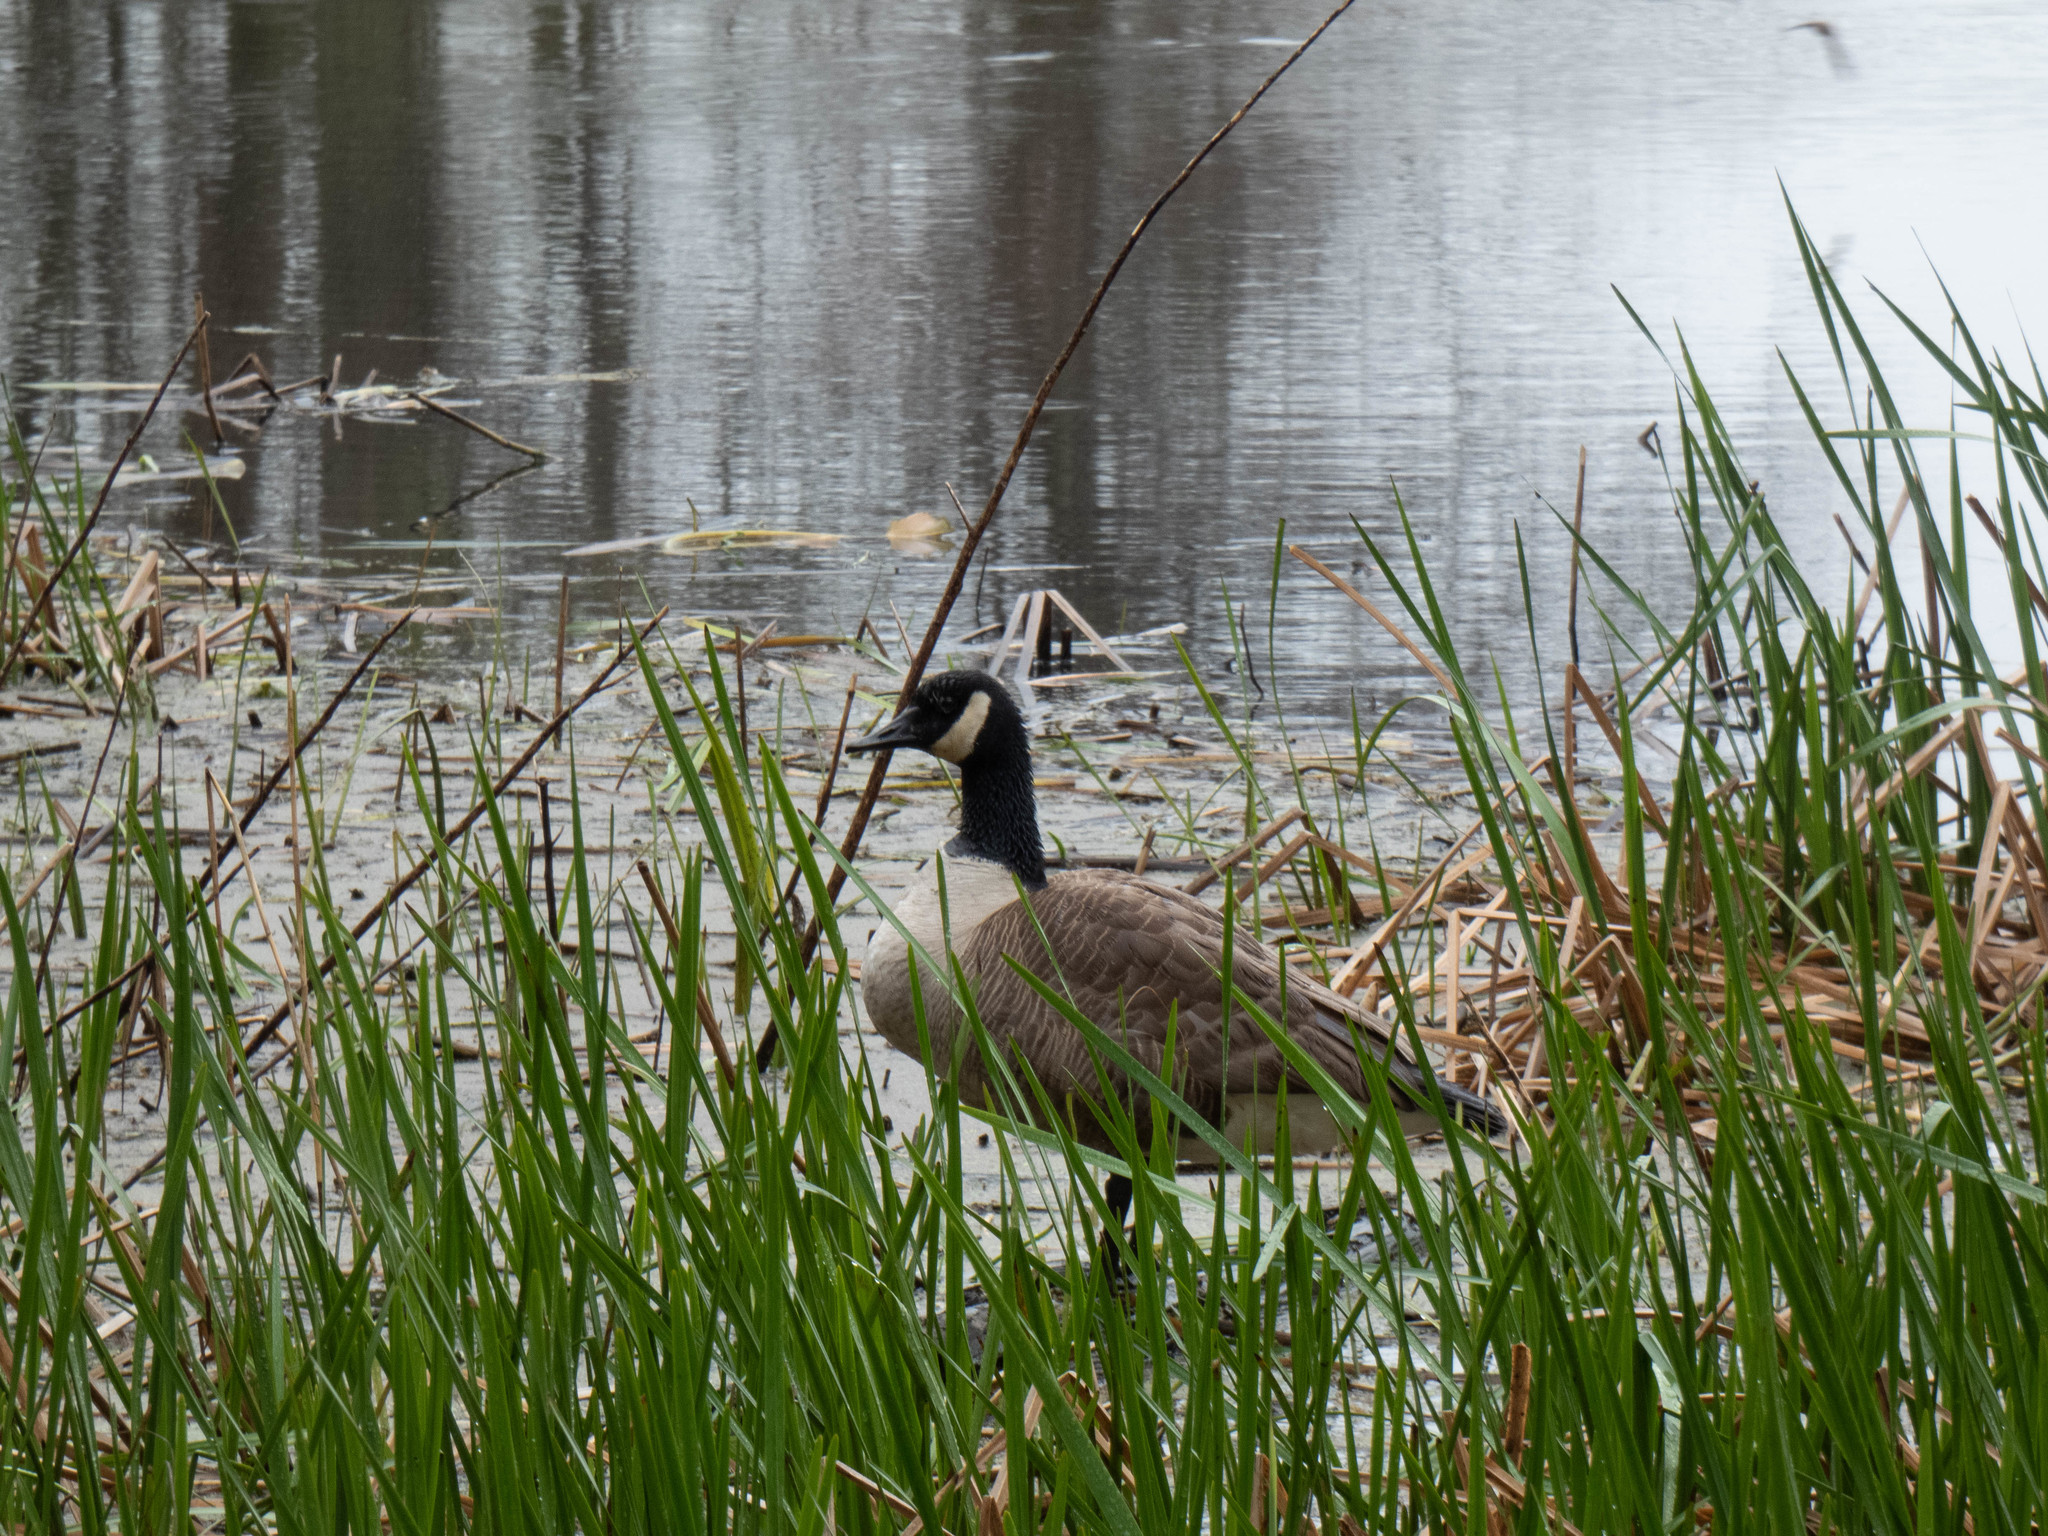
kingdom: Animalia
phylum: Chordata
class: Aves
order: Anseriformes
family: Anatidae
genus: Branta
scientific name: Branta canadensis
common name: Canada goose
